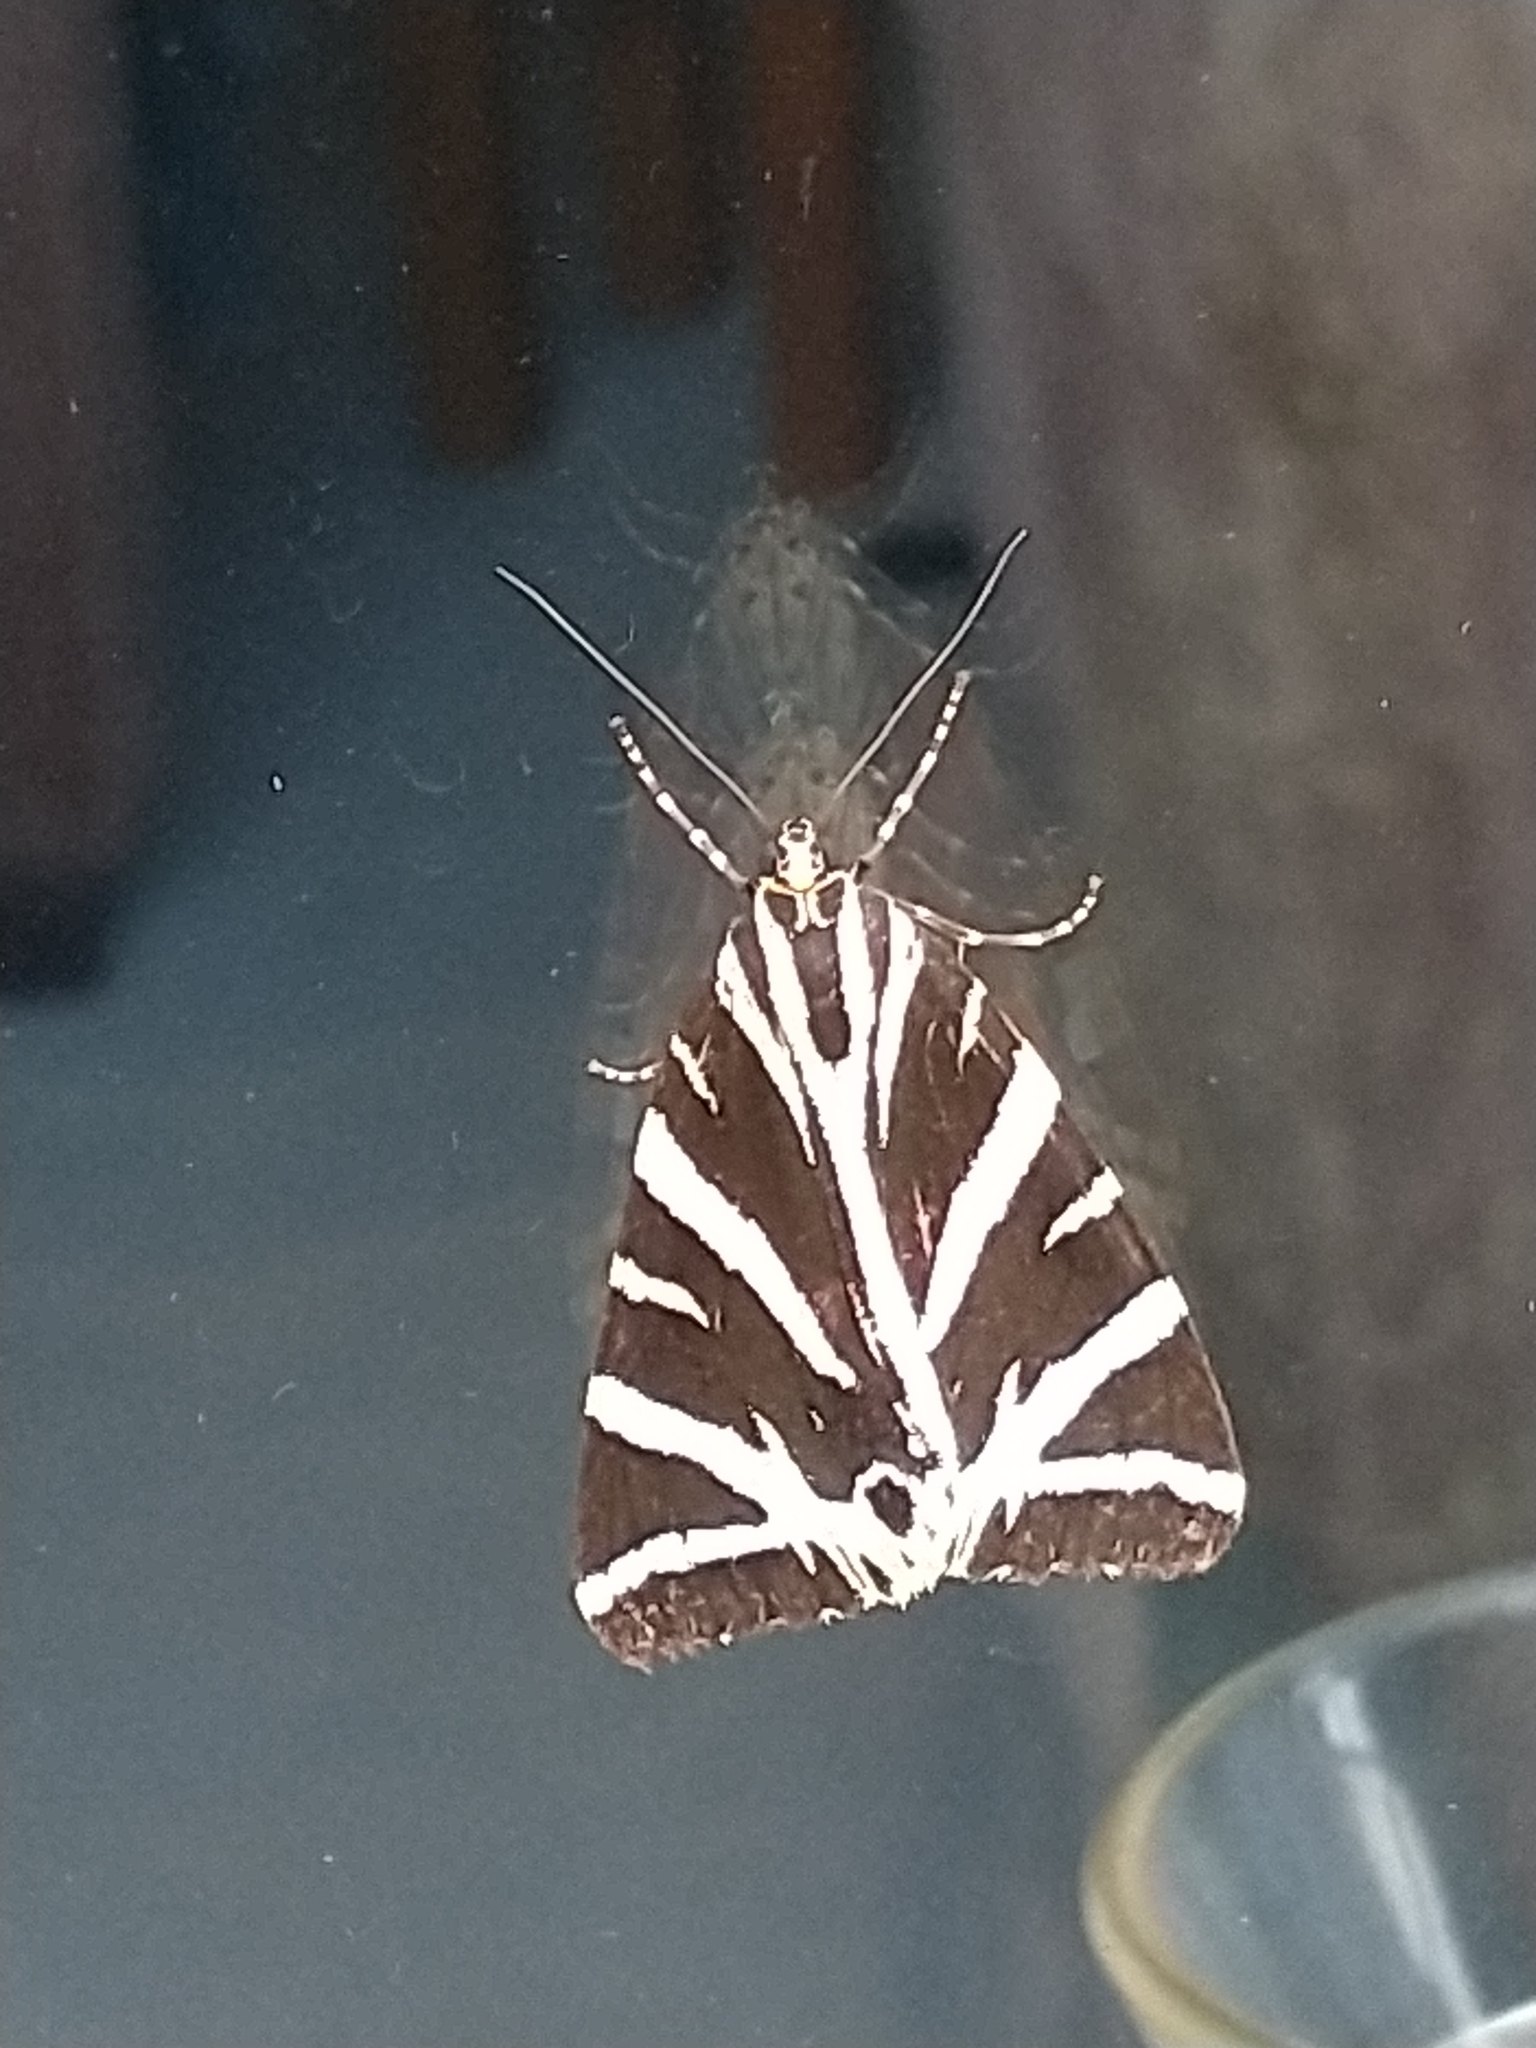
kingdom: Animalia
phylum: Arthropoda
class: Insecta
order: Lepidoptera
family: Erebidae
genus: Euplagia
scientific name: Euplagia quadripunctaria
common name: Jersey tiger
